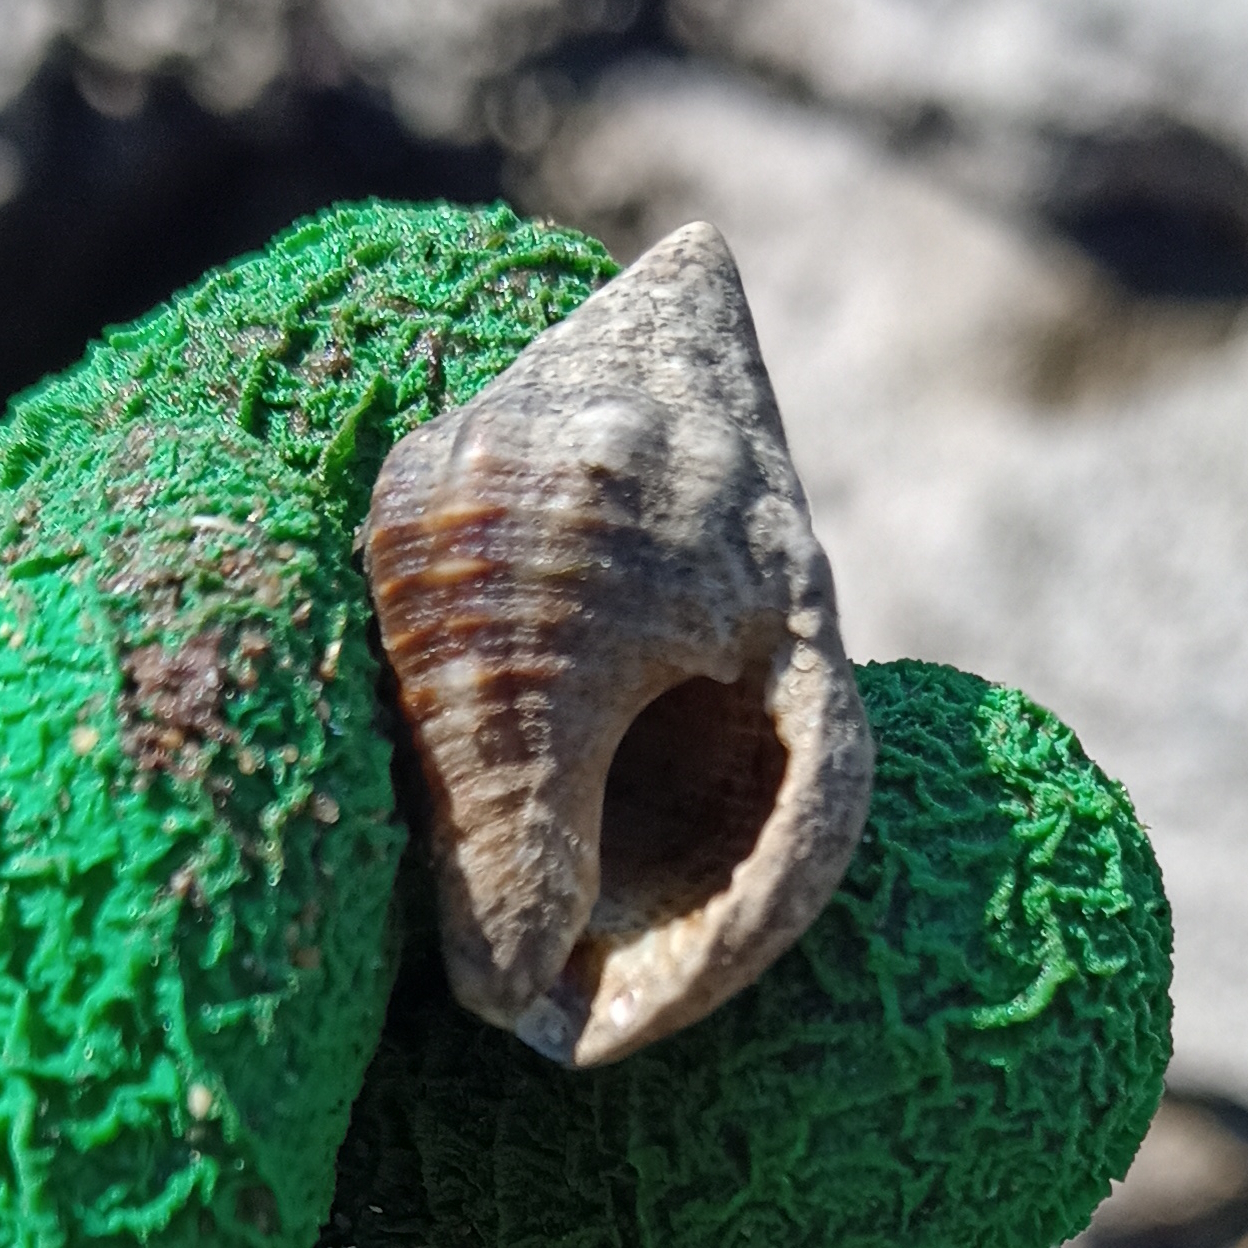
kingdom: Animalia
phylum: Mollusca
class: Gastropoda
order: Neogastropoda
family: Pisaniidae
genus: Gemophos
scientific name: Gemophos auritulus
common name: Gaudy cantharus
